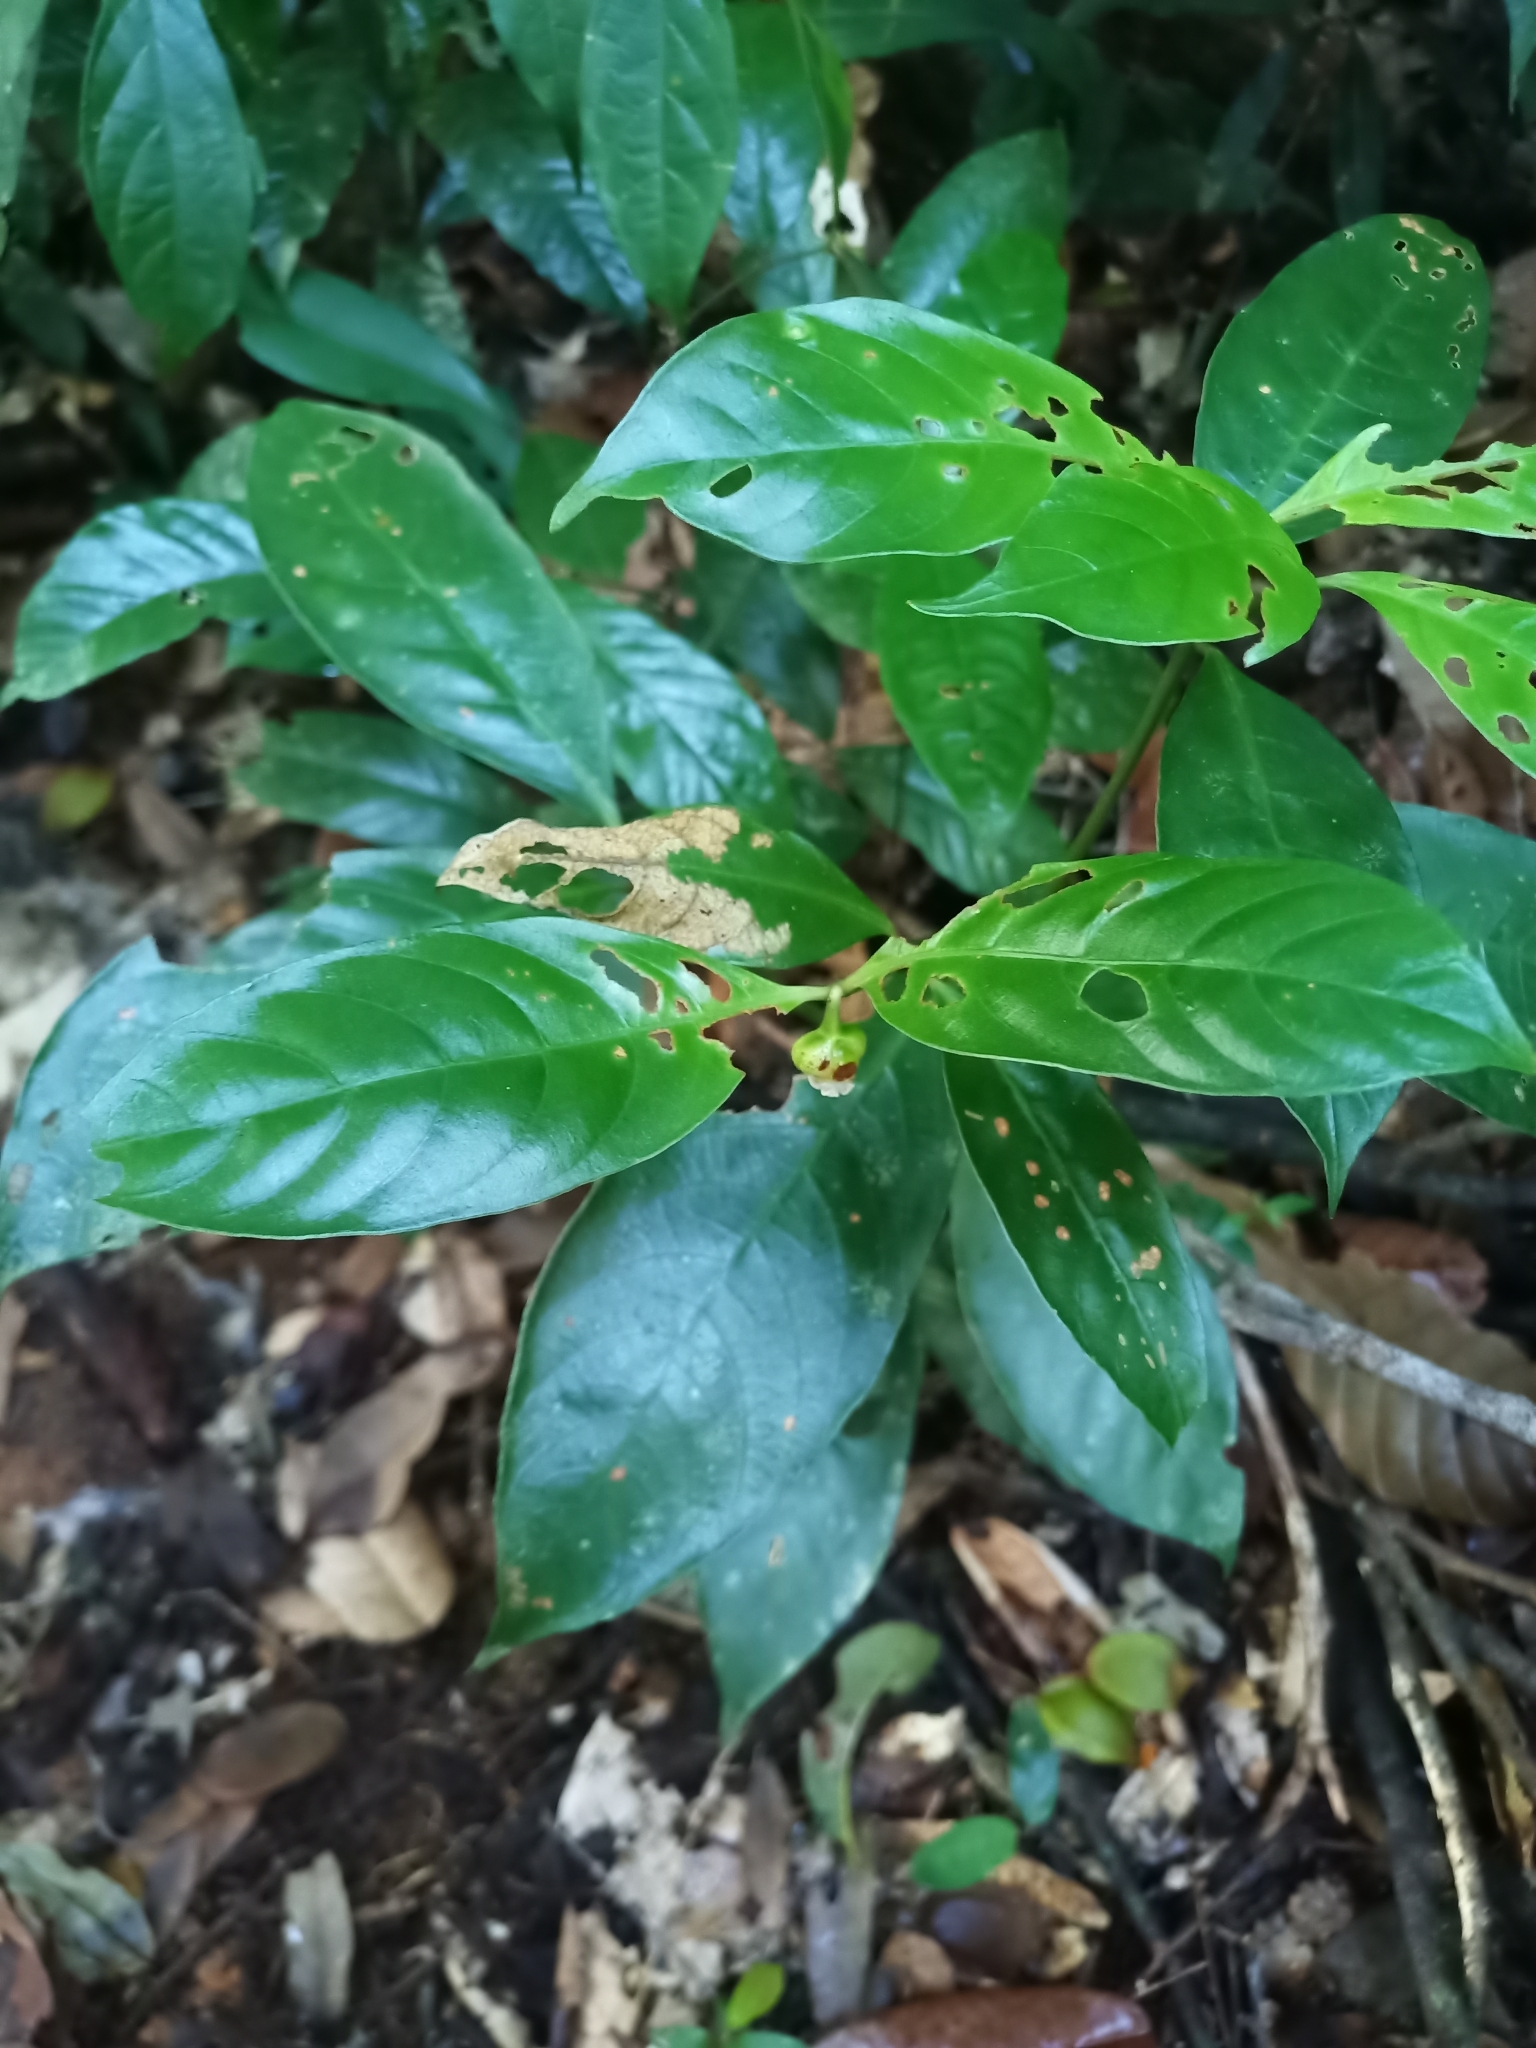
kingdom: Plantae
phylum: Tracheophyta
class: Magnoliopsida
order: Gentianales
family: Rubiaceae
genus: Palicourea
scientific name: Palicourea dichotoma
